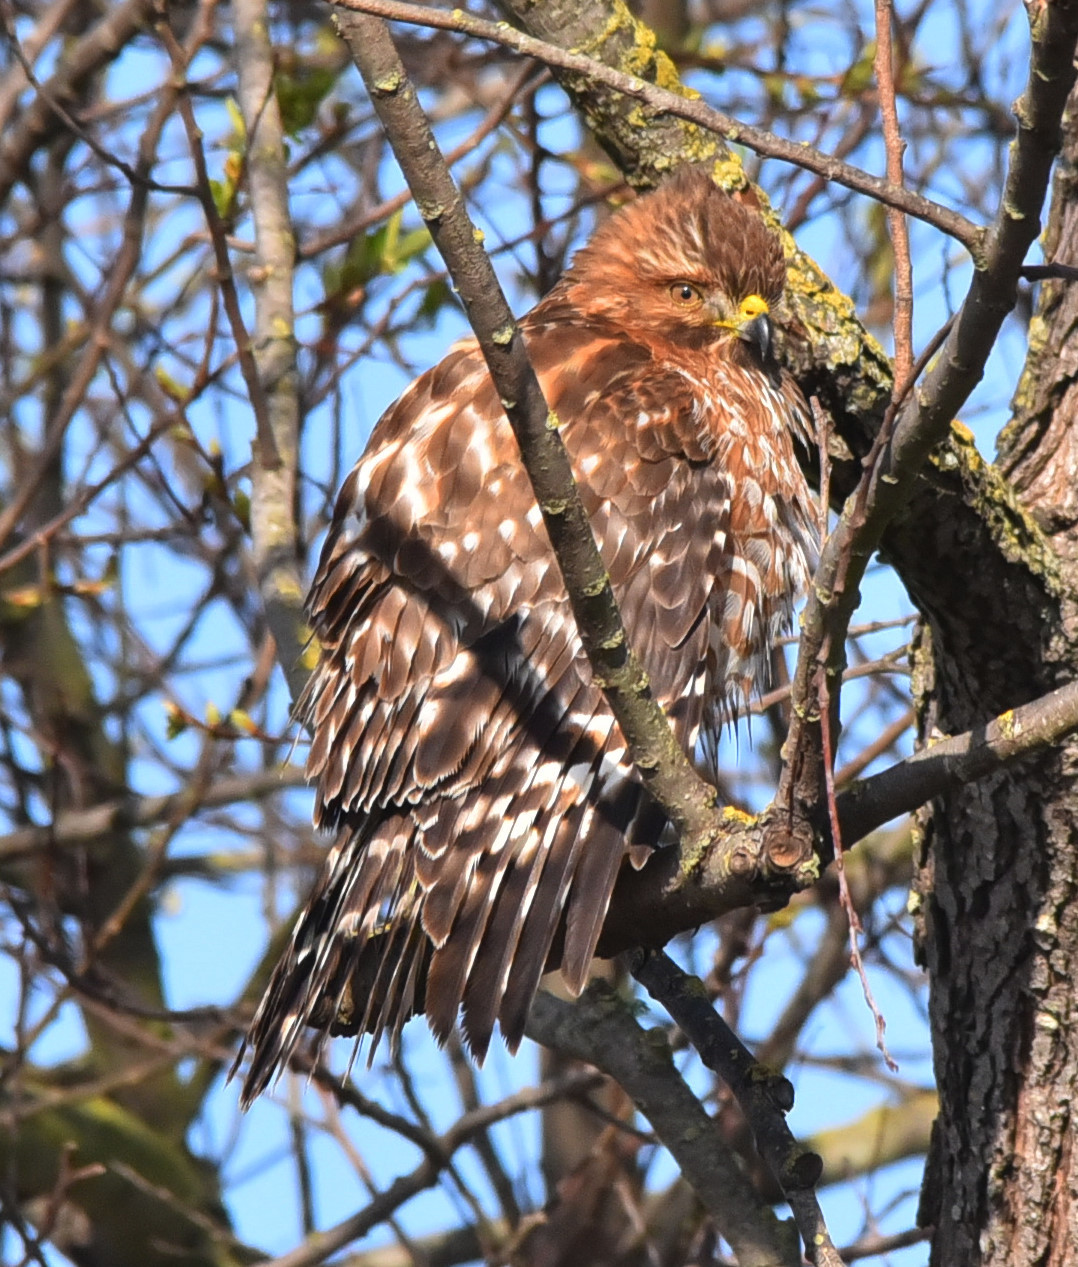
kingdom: Animalia
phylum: Chordata
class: Aves
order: Accipitriformes
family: Accipitridae
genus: Buteo
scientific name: Buteo lineatus
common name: Red-shouldered hawk
